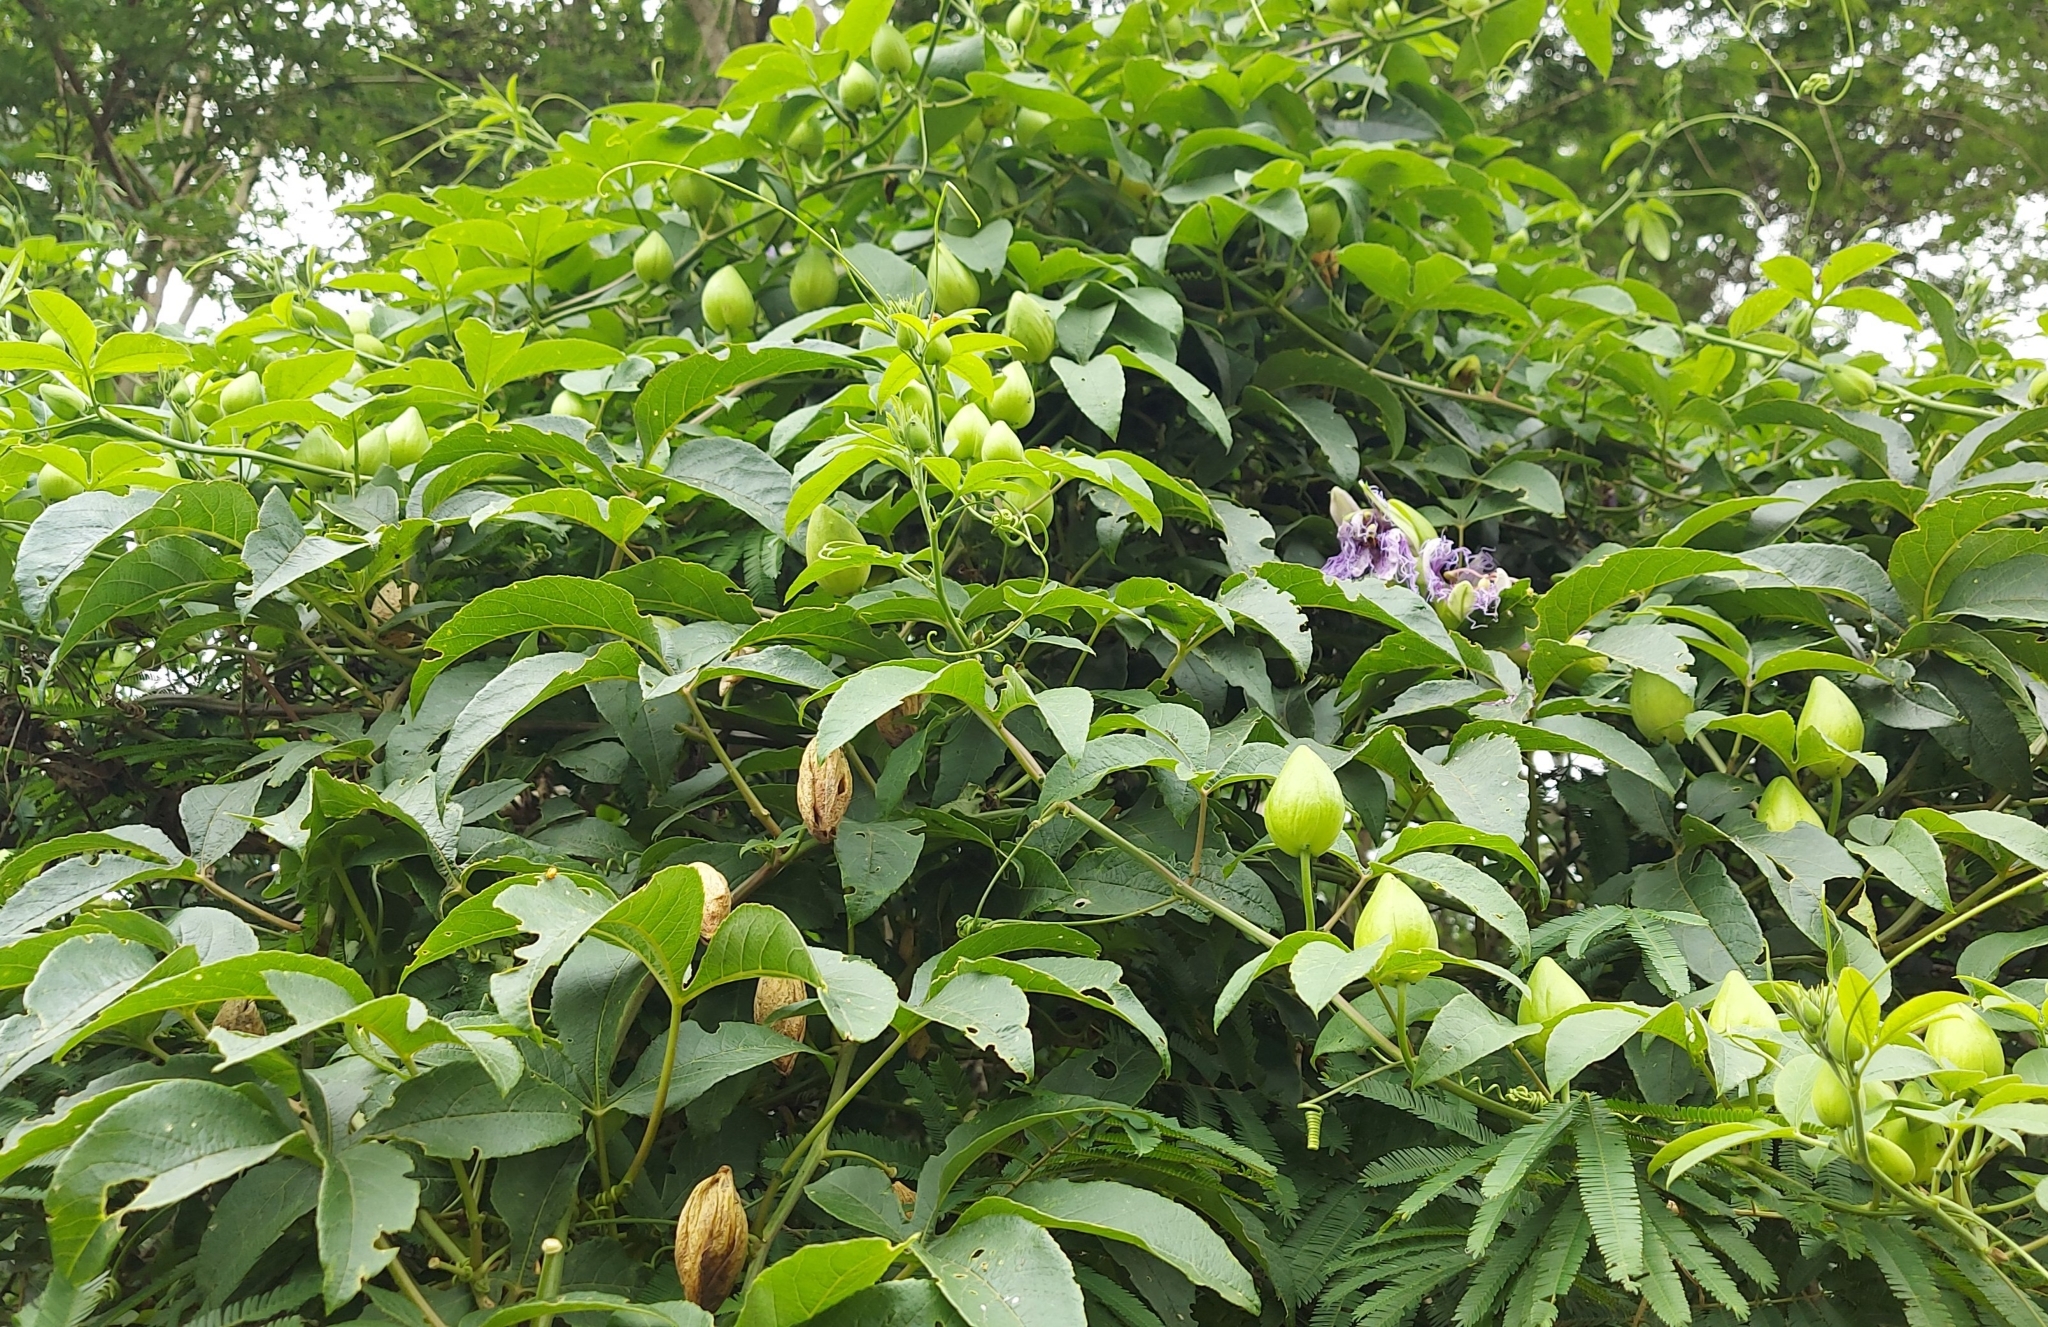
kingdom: Plantae
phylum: Tracheophyta
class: Magnoliopsida
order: Malpighiales
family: Passifloraceae
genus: Passiflora
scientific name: Passiflora cincinnata
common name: Crato passionvine
